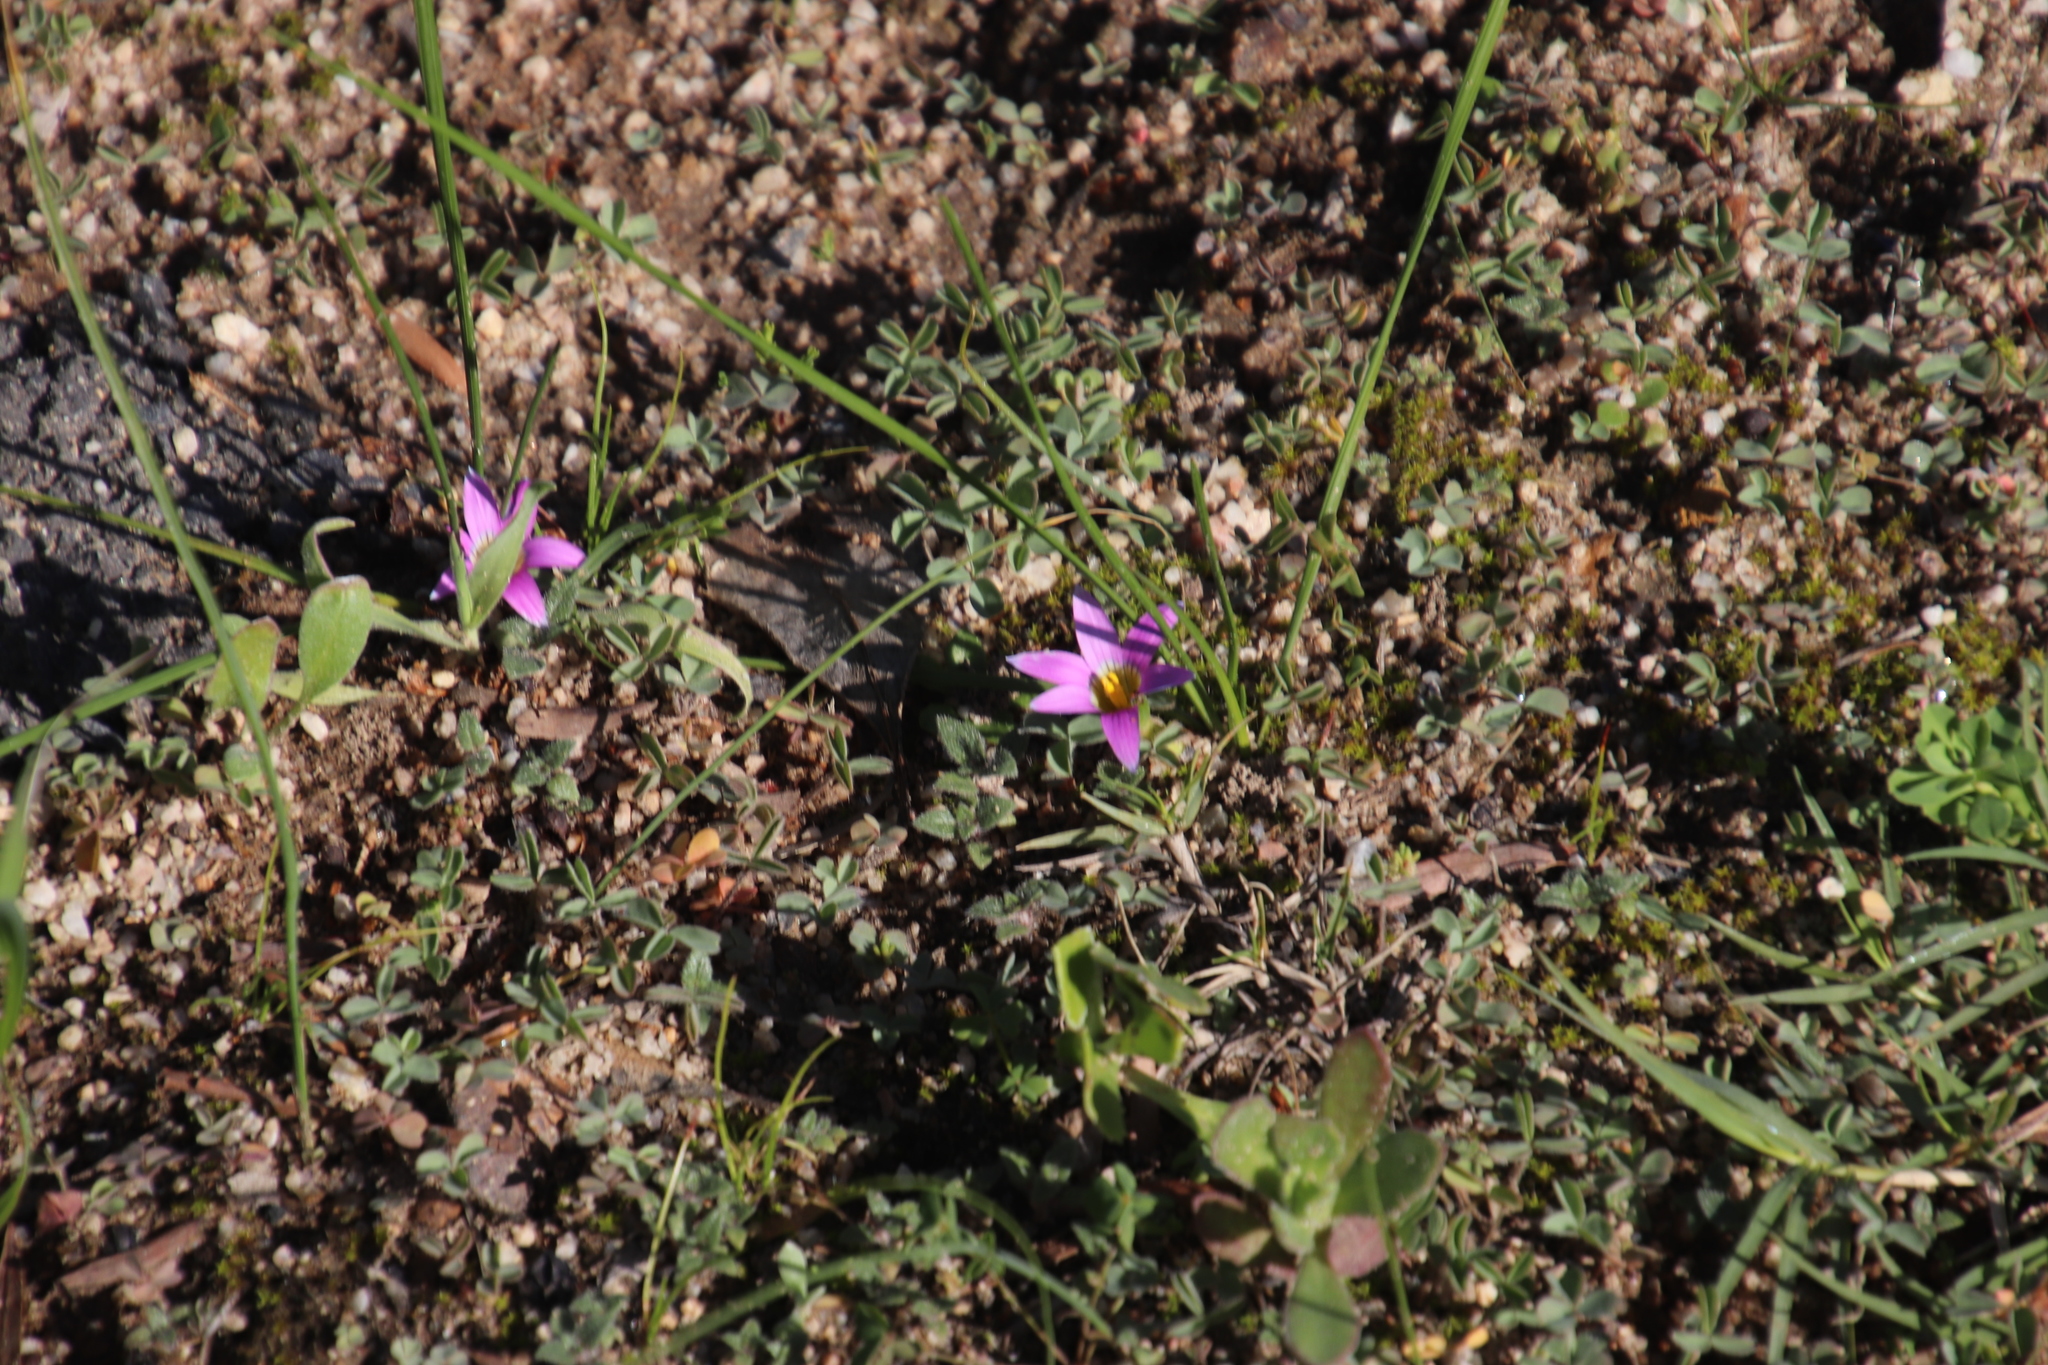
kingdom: Plantae
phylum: Tracheophyta
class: Liliopsida
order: Asparagales
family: Iridaceae
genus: Romulea
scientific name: Romulea rosea
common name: Oniongrass
